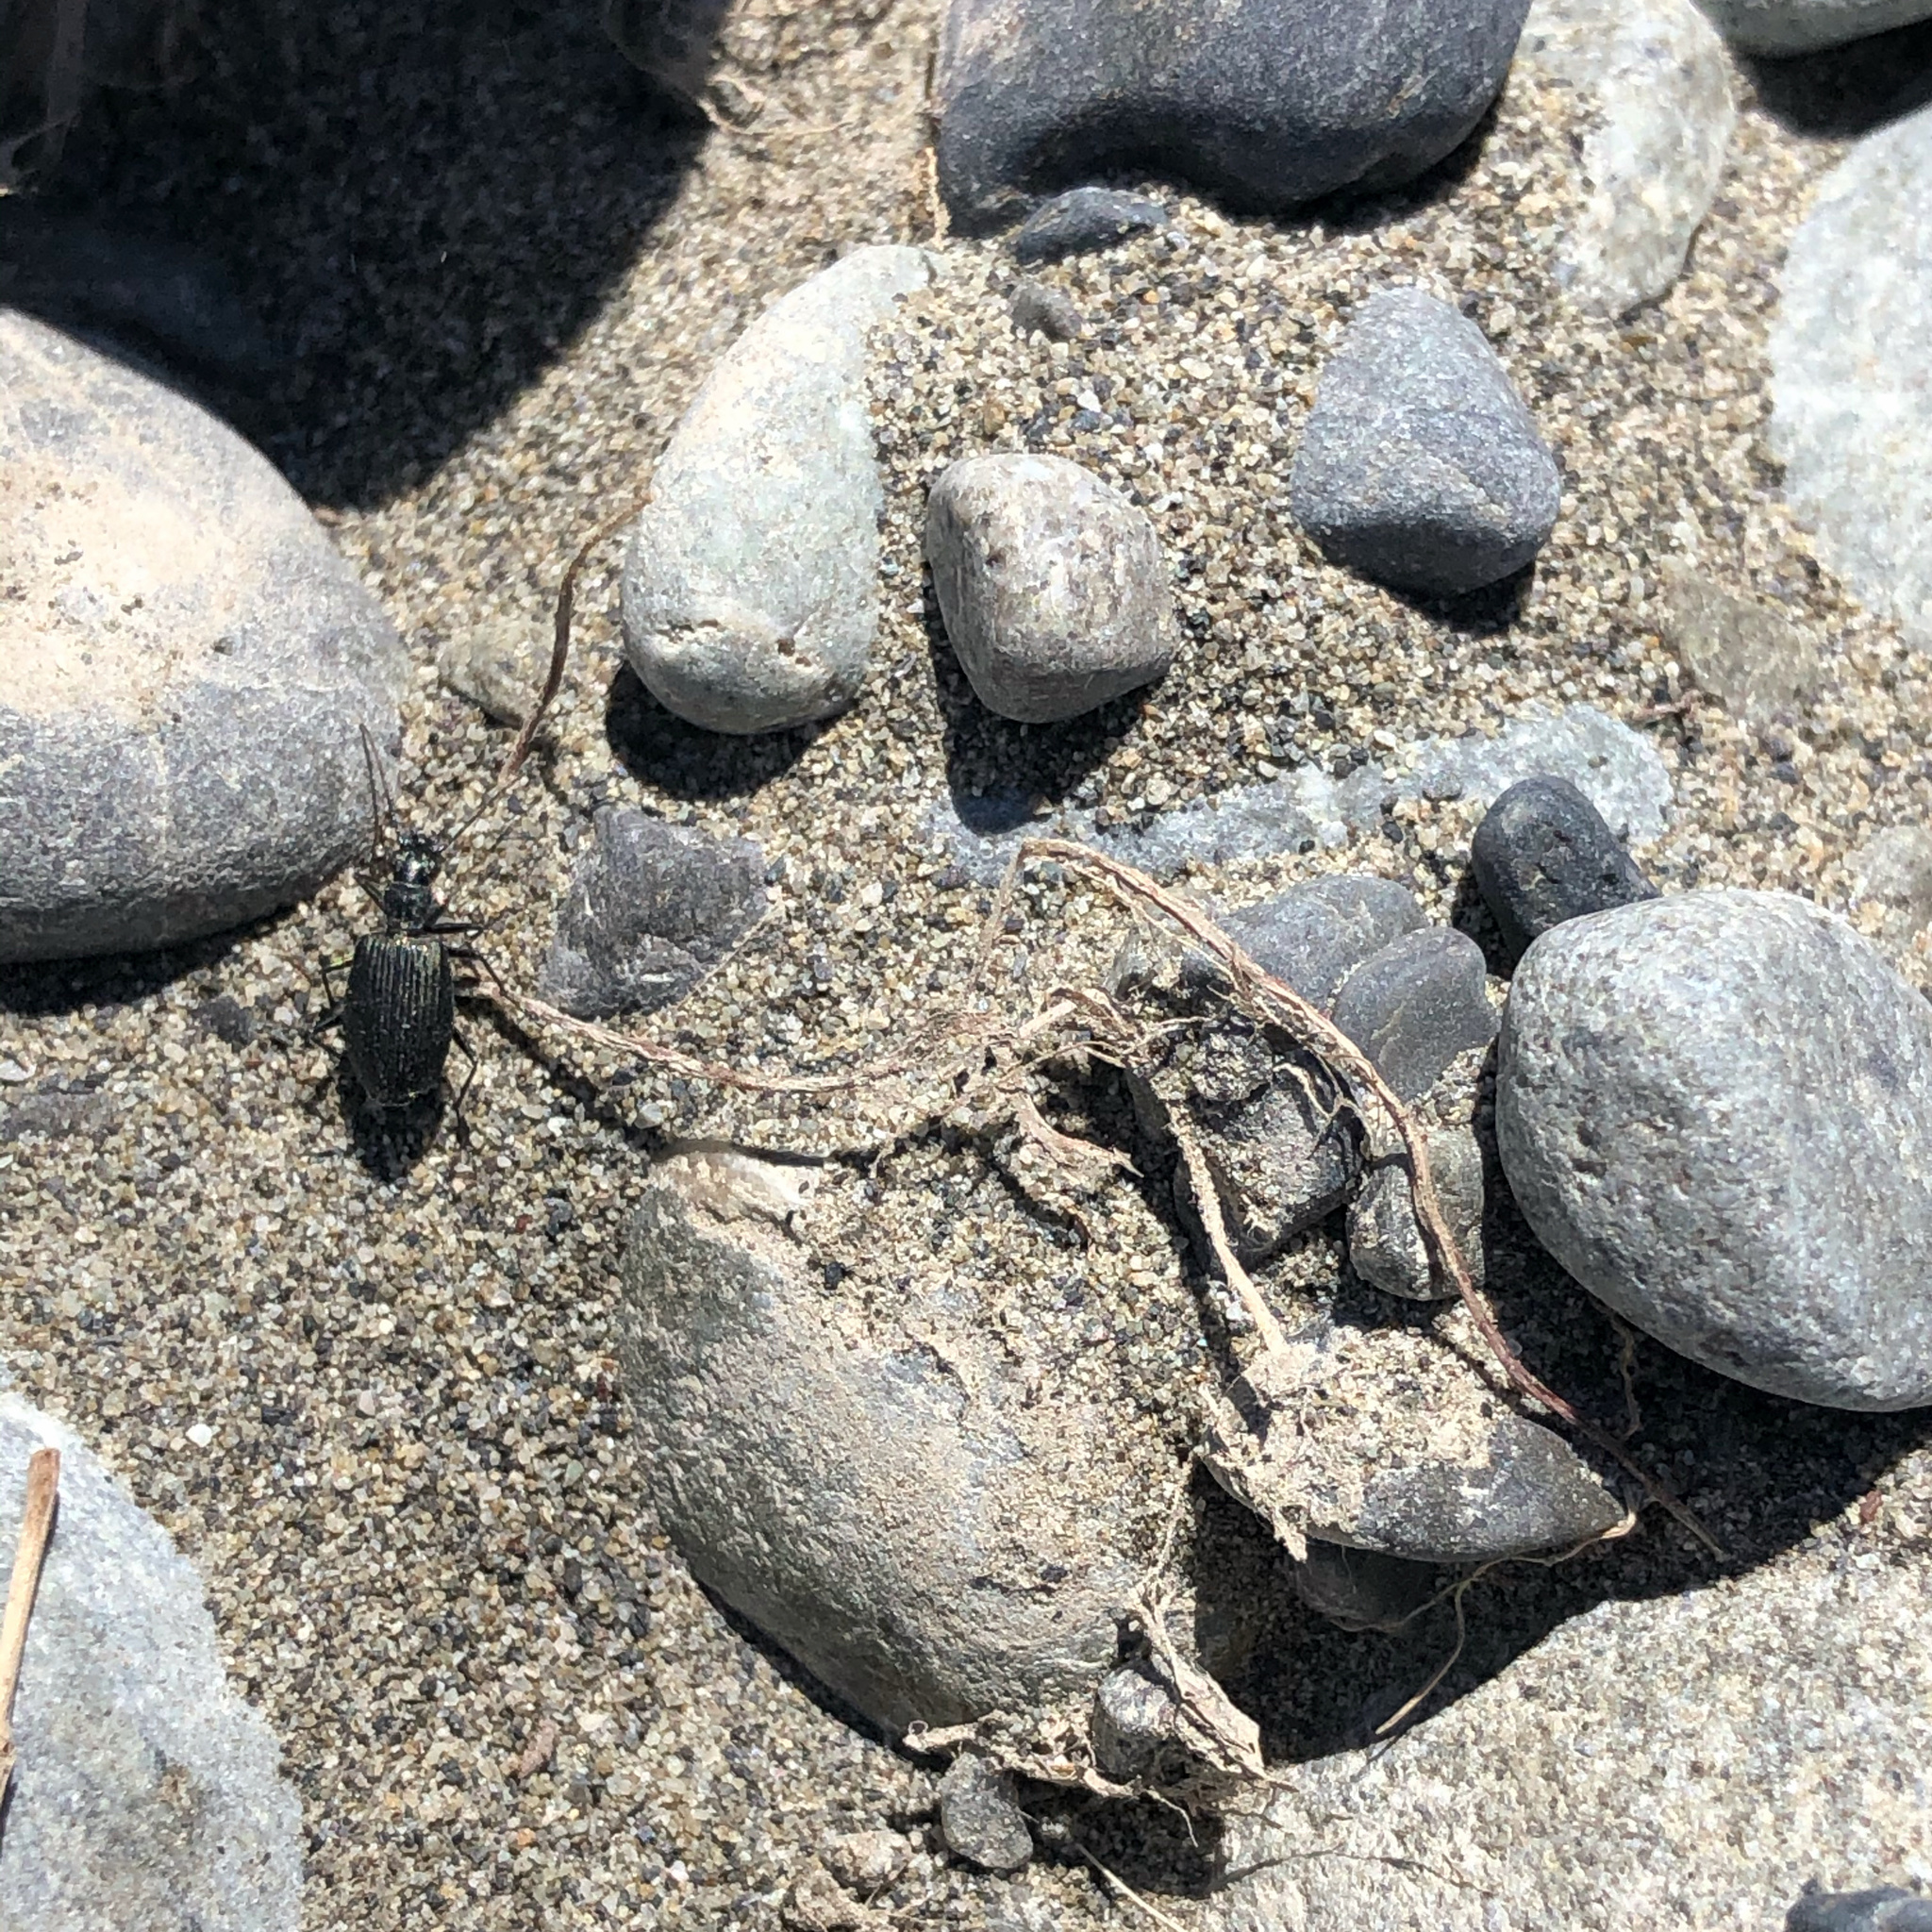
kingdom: Animalia
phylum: Arthropoda
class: Insecta
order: Coleoptera
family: Carabidae
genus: Actenonyx
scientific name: Actenonyx bembidioides
